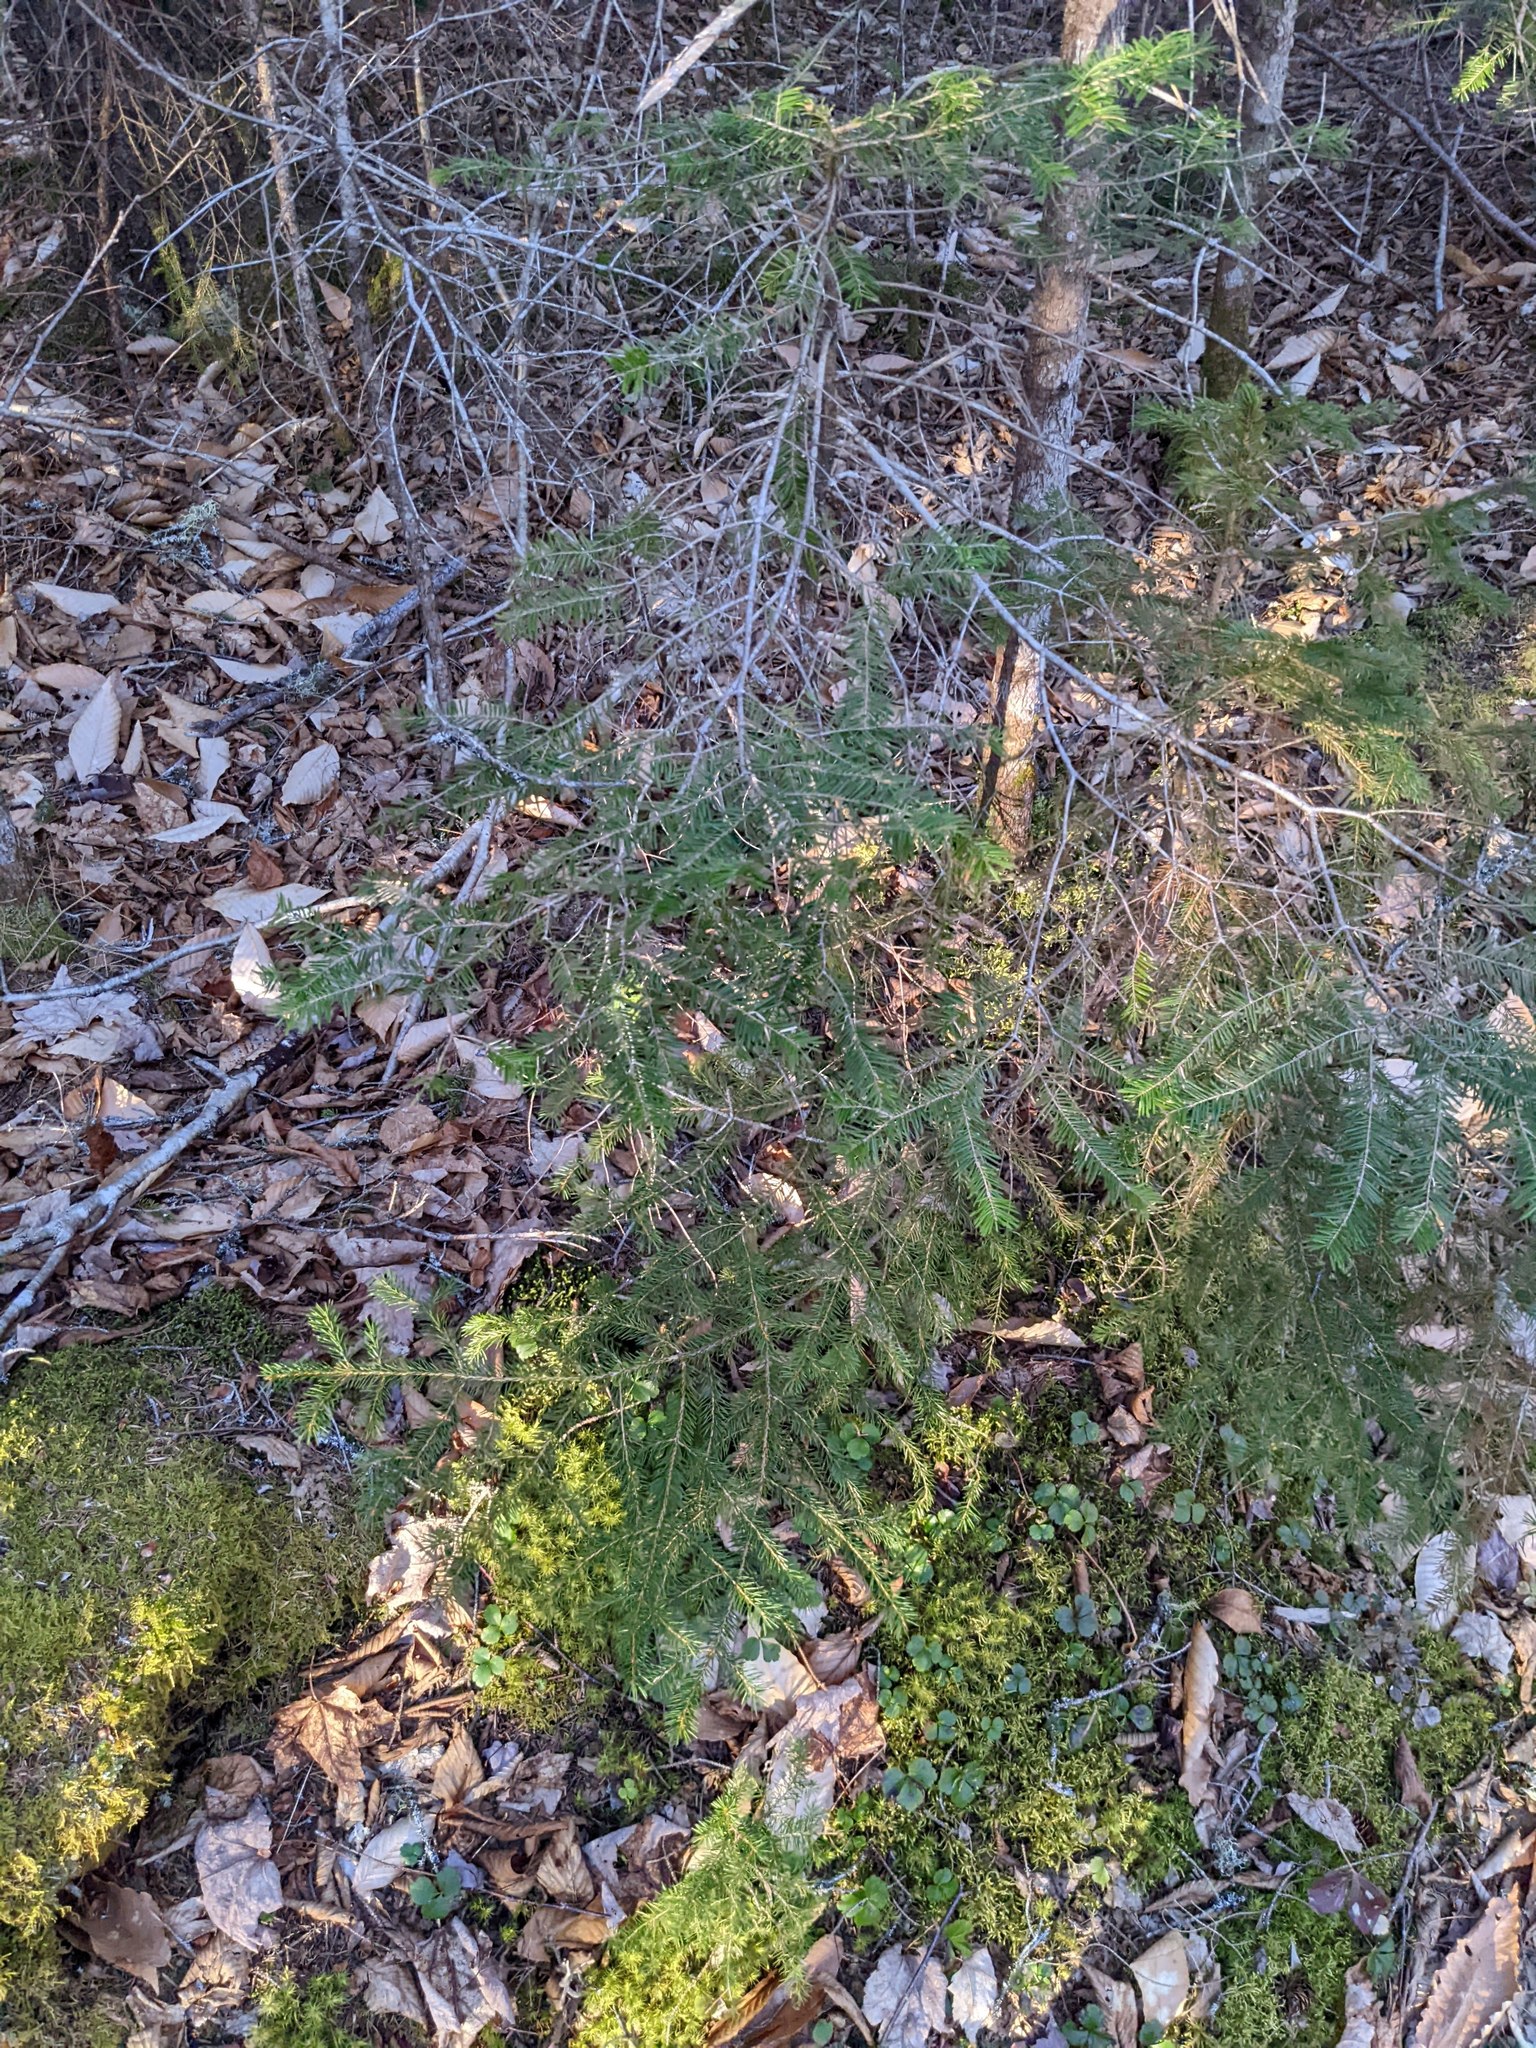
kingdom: Plantae
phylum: Tracheophyta
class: Pinopsida
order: Pinales
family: Pinaceae
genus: Abies
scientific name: Abies balsamea
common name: Balsam fir
